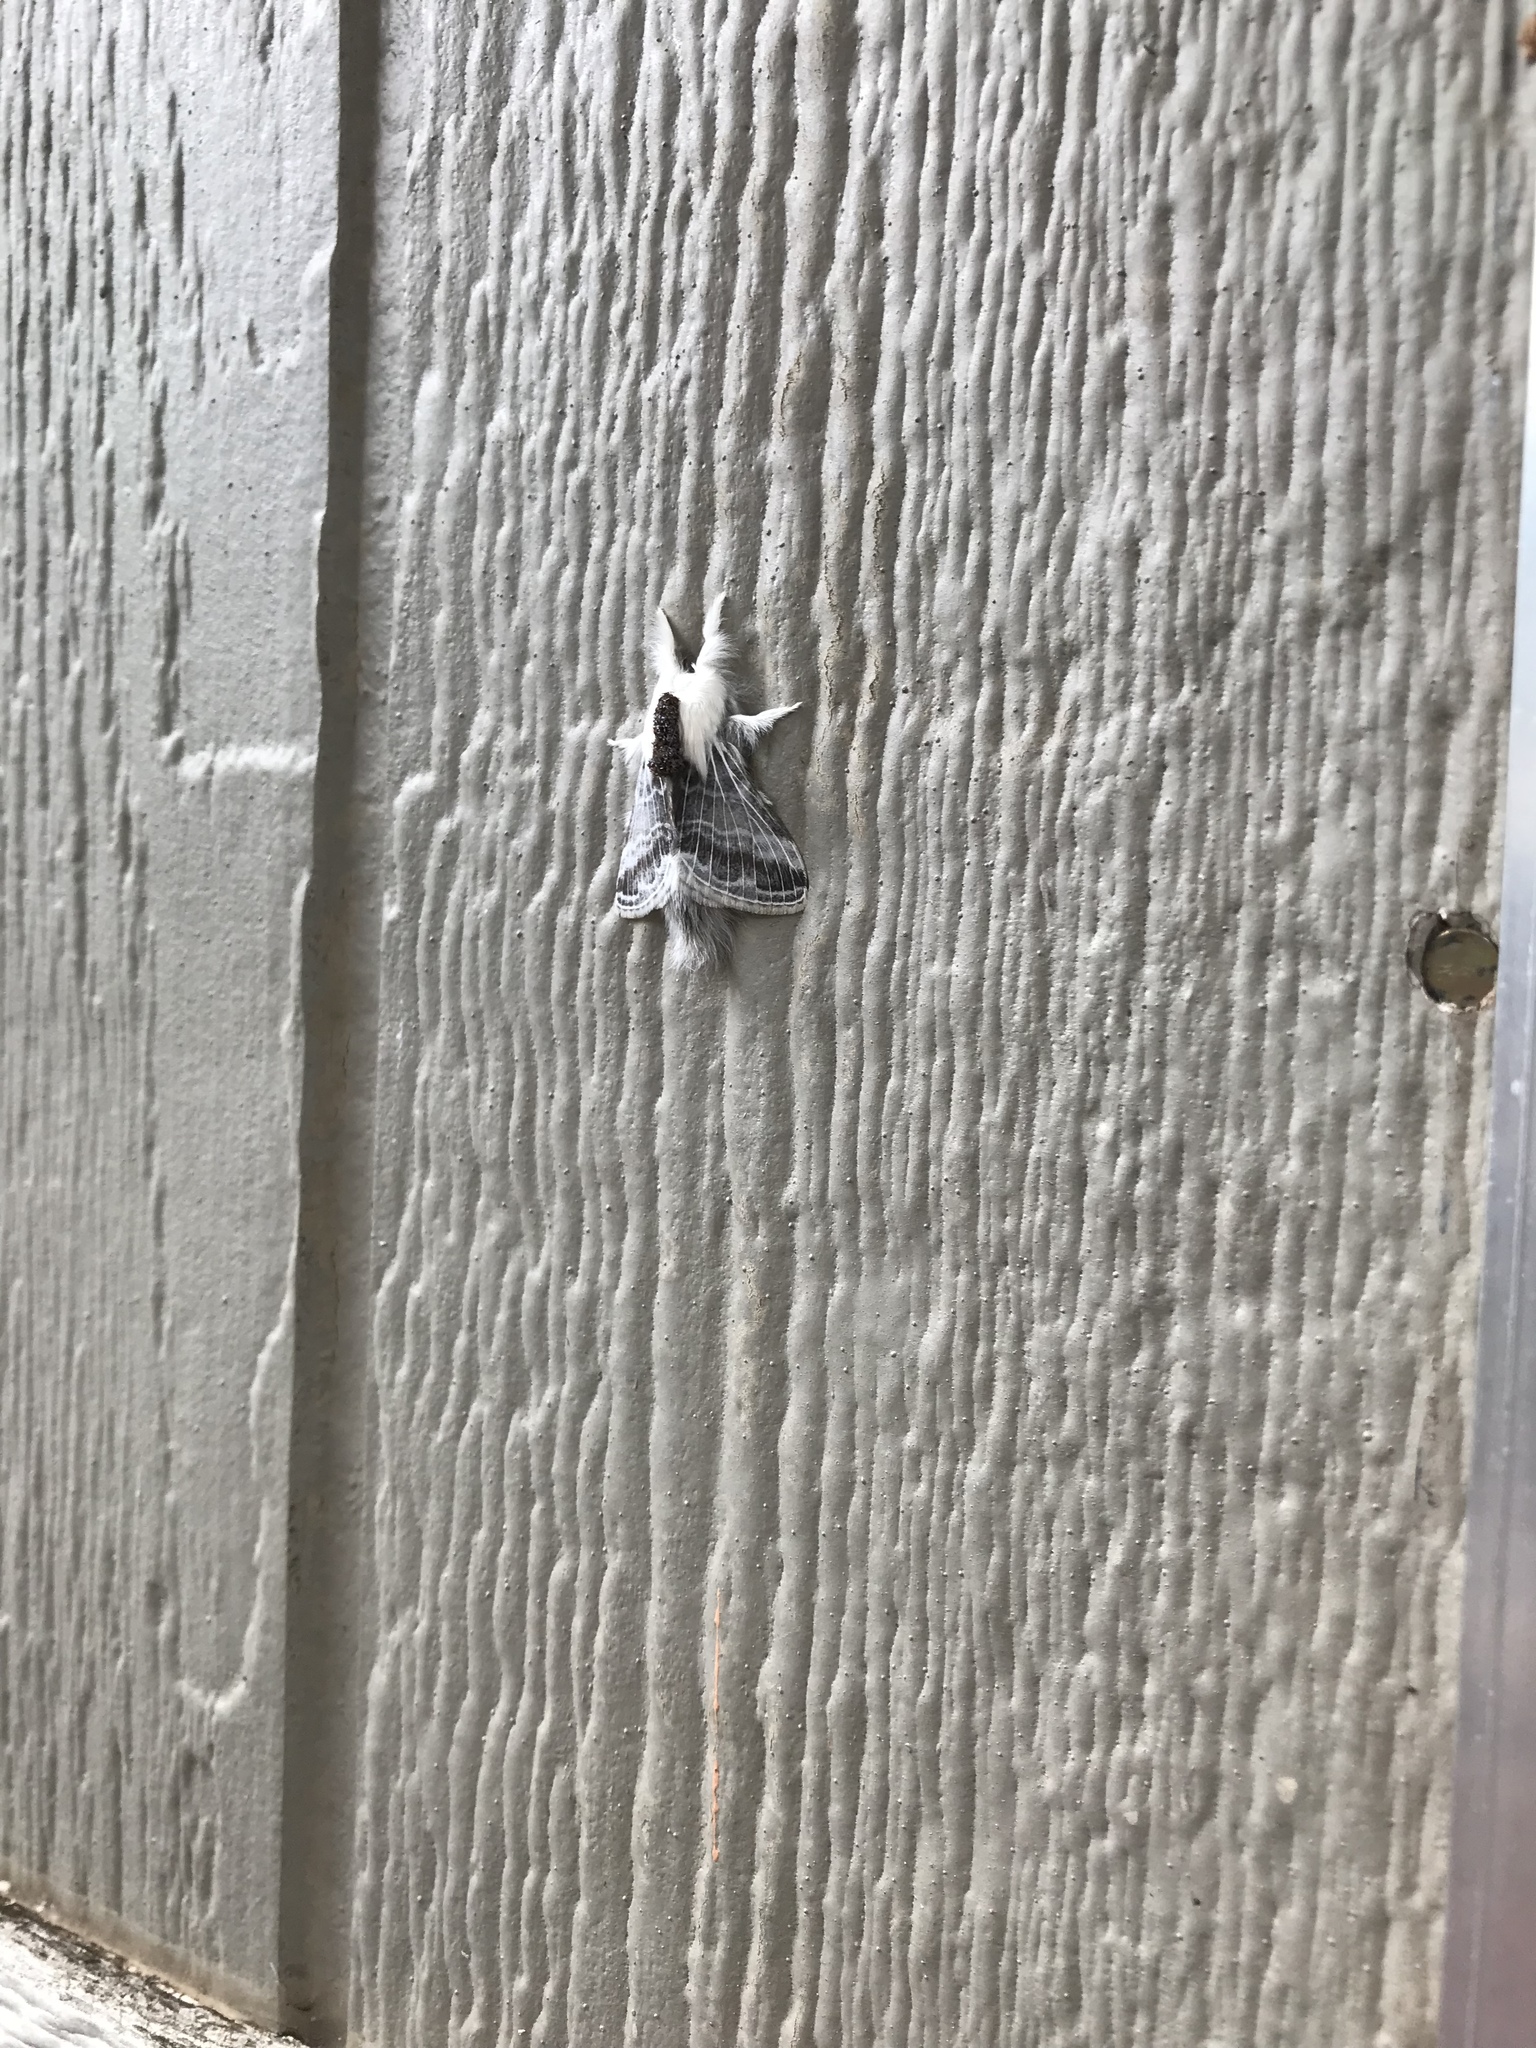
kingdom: Animalia
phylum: Arthropoda
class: Insecta
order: Lepidoptera
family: Lasiocampidae
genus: Tolype
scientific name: Tolype velleda
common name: Large tolype moth
